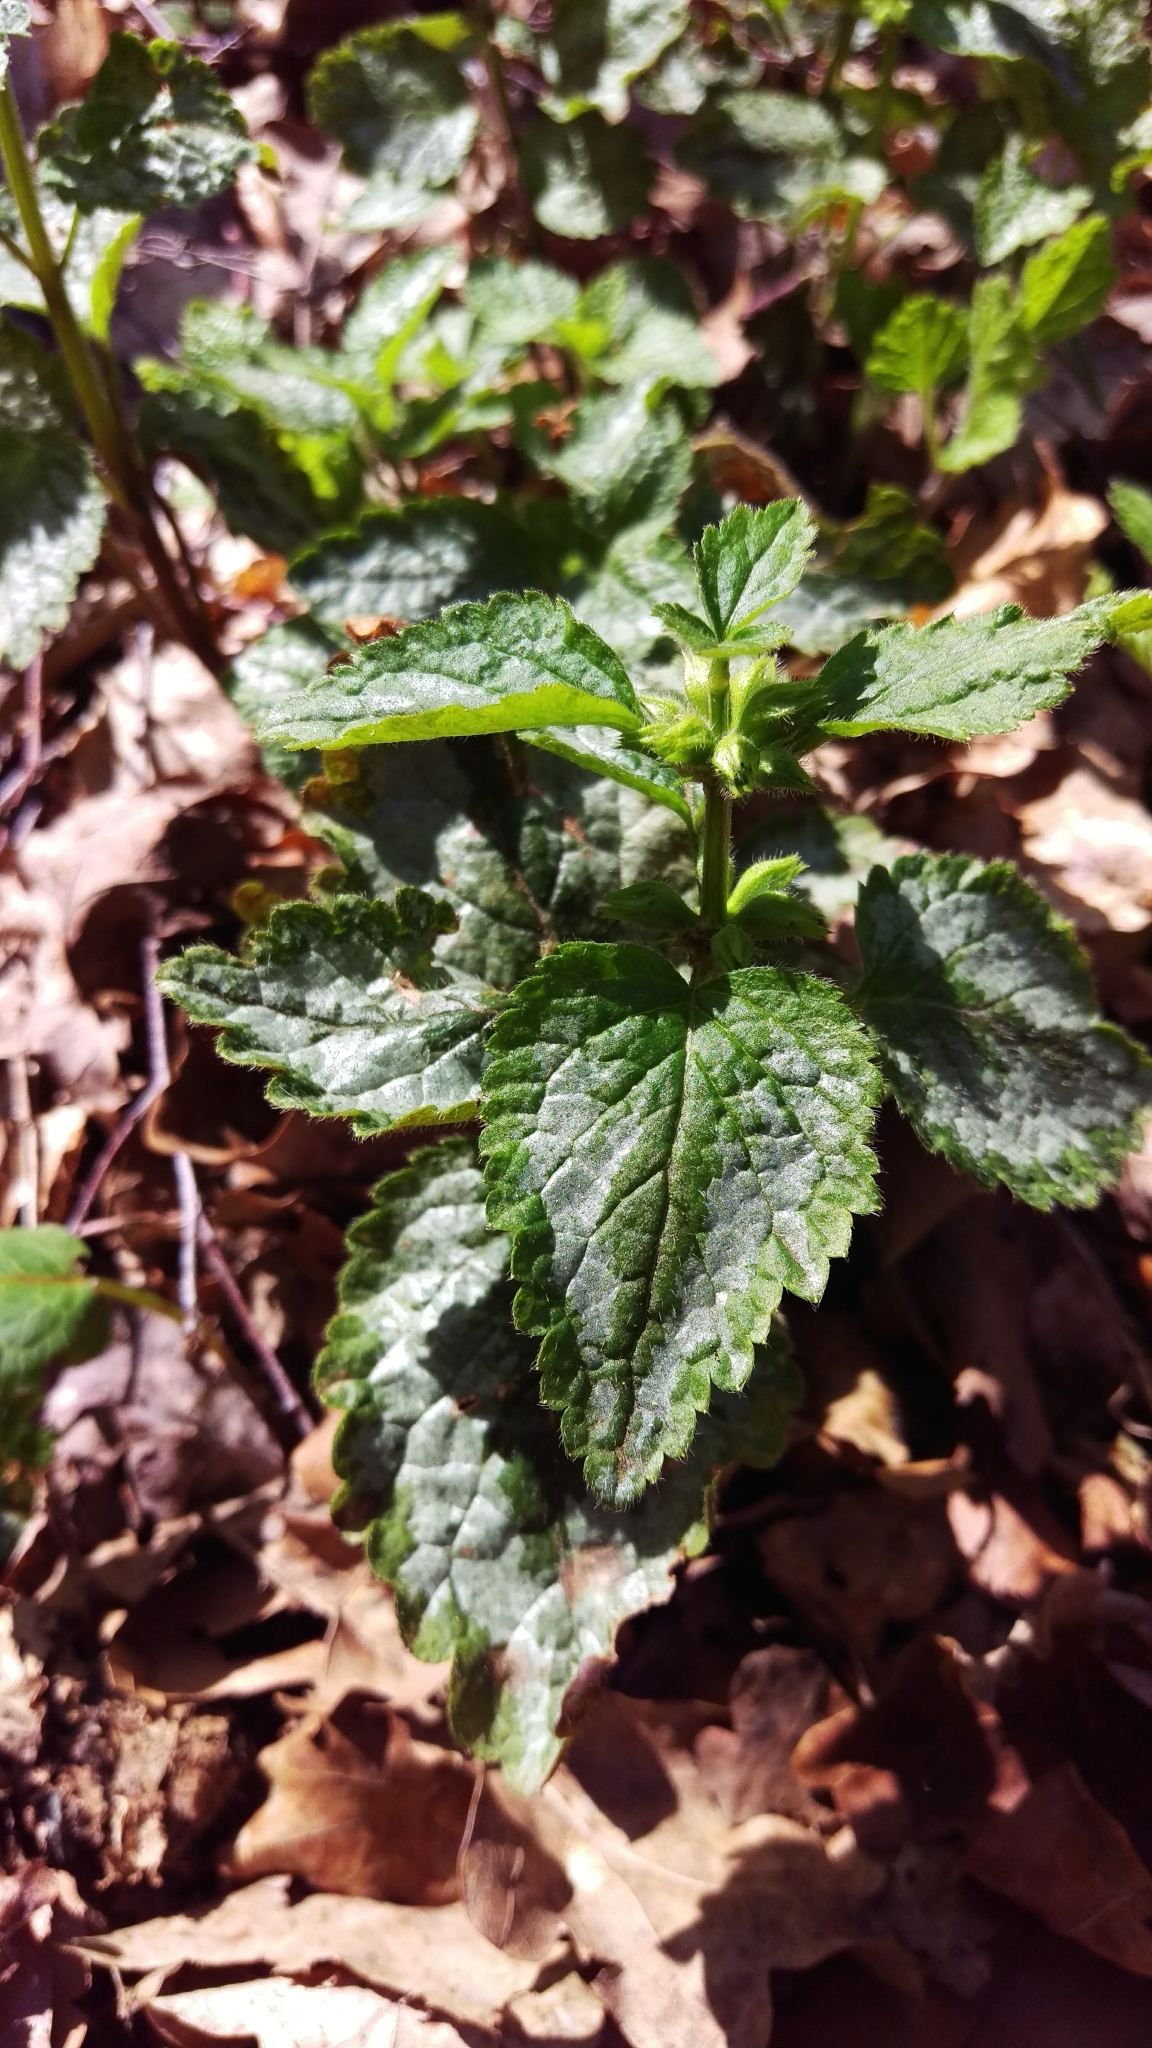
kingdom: Plantae
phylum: Tracheophyta
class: Magnoliopsida
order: Lamiales
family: Lamiaceae
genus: Lamium
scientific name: Lamium galeobdolon
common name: Yellow archangel
